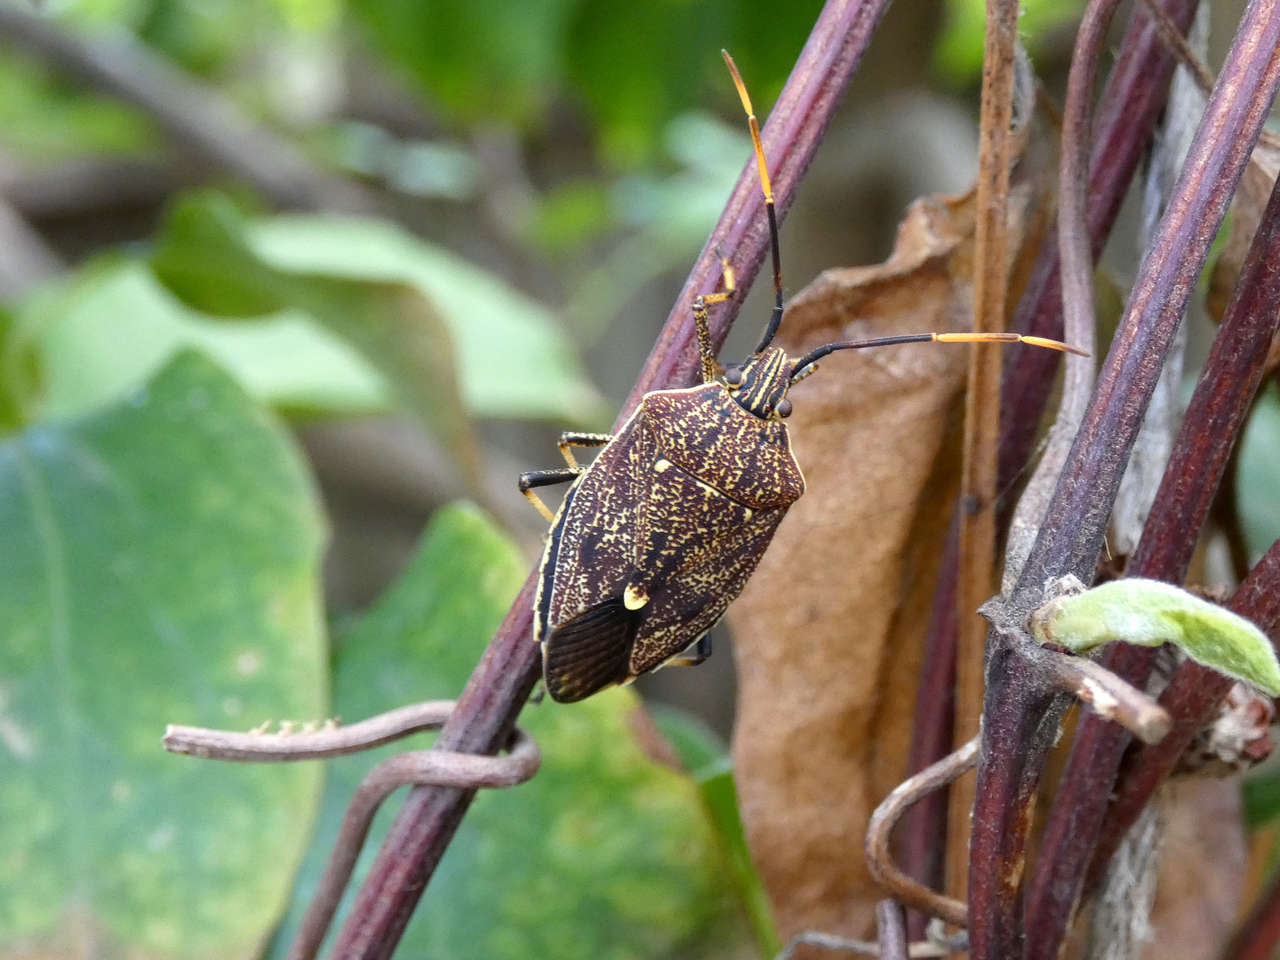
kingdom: Animalia
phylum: Arthropoda
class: Insecta
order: Hemiptera
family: Pentatomidae
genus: Poecilometis
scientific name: Poecilometis
